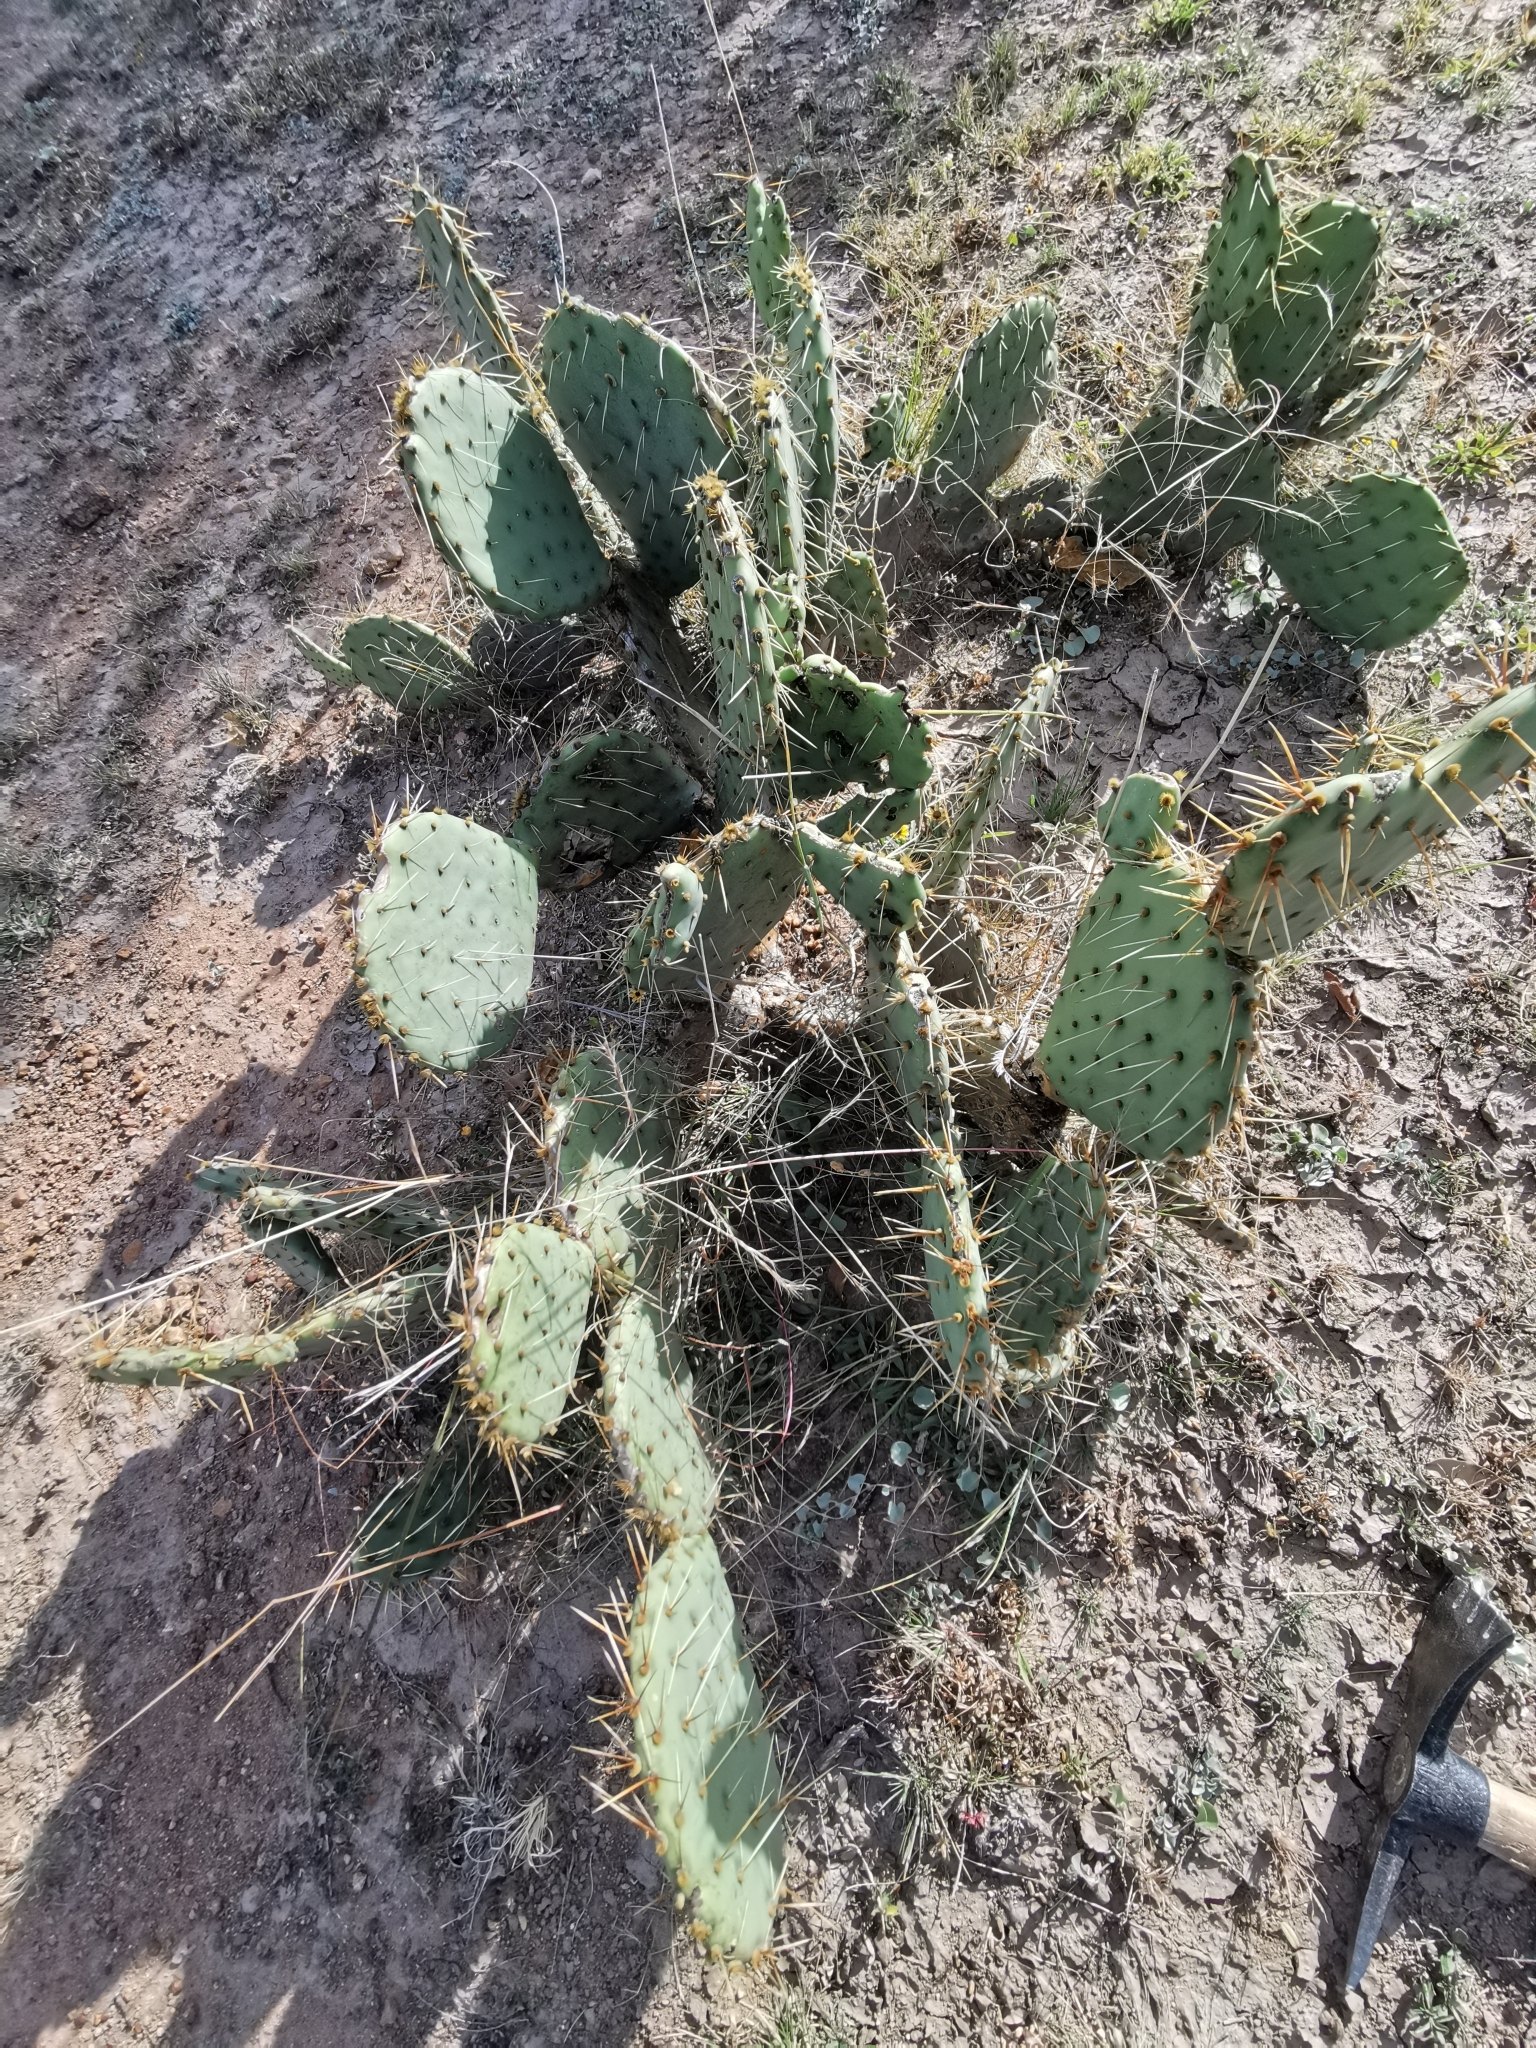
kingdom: Plantae
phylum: Tracheophyta
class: Magnoliopsida
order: Caryophyllales
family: Cactaceae
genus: Opuntia
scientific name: Opuntia phaeacantha
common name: New mexico prickly-pear
